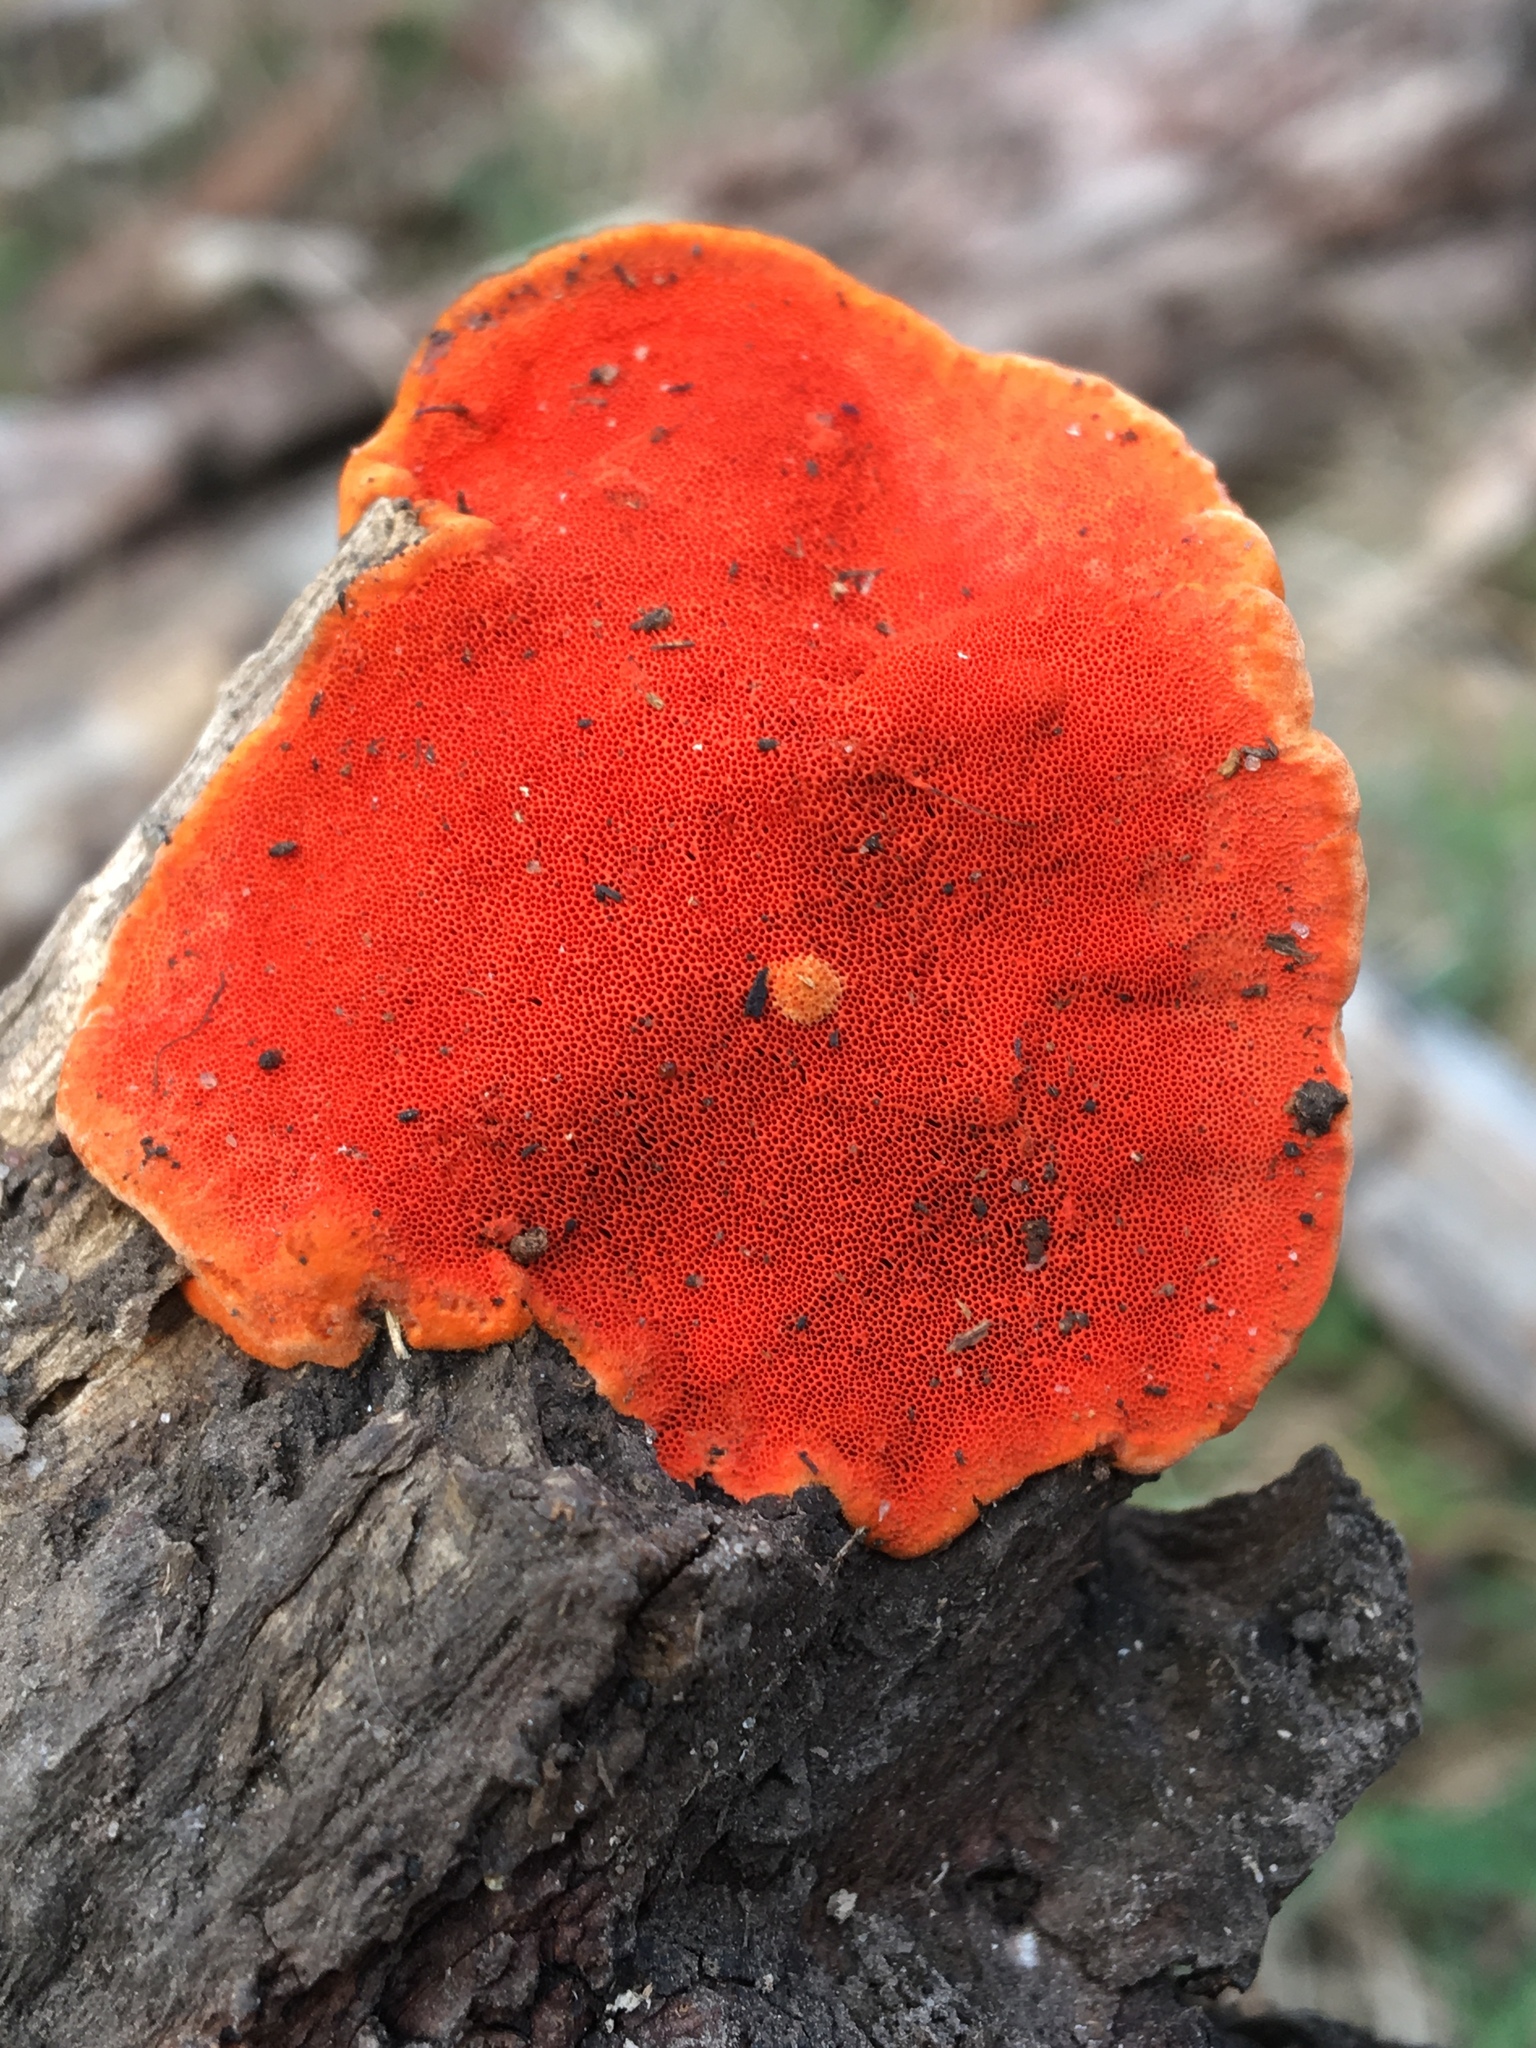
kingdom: Fungi
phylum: Basidiomycota
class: Agaricomycetes
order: Polyporales
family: Polyporaceae
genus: Trametes
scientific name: Trametes coccinea
